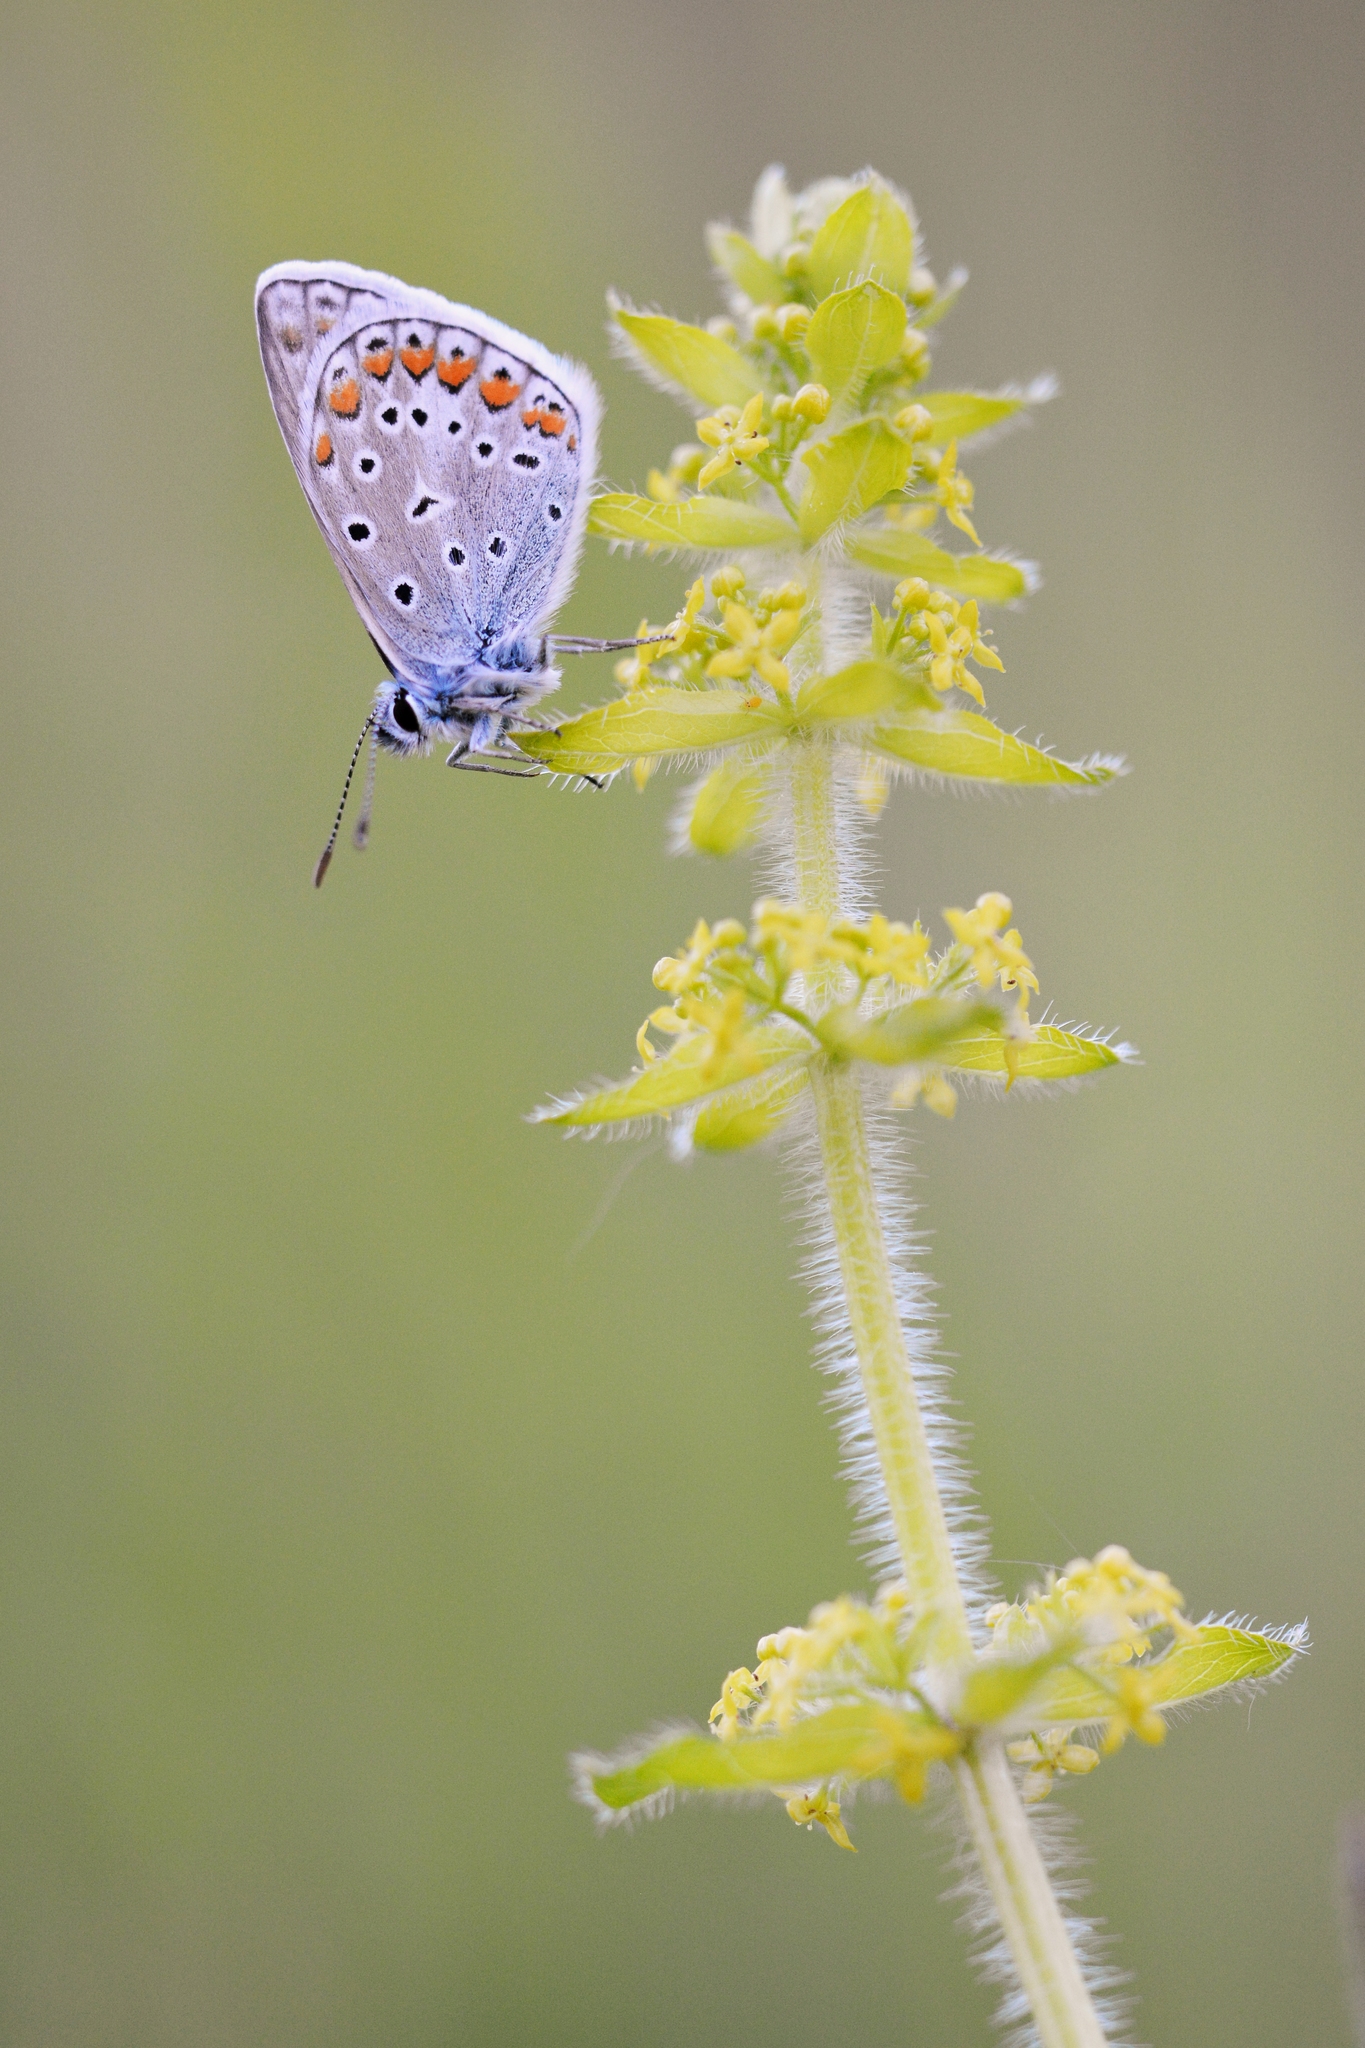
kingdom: Animalia
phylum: Arthropoda
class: Insecta
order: Lepidoptera
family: Lycaenidae
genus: Polyommatus
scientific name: Polyommatus icarus
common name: Common blue
